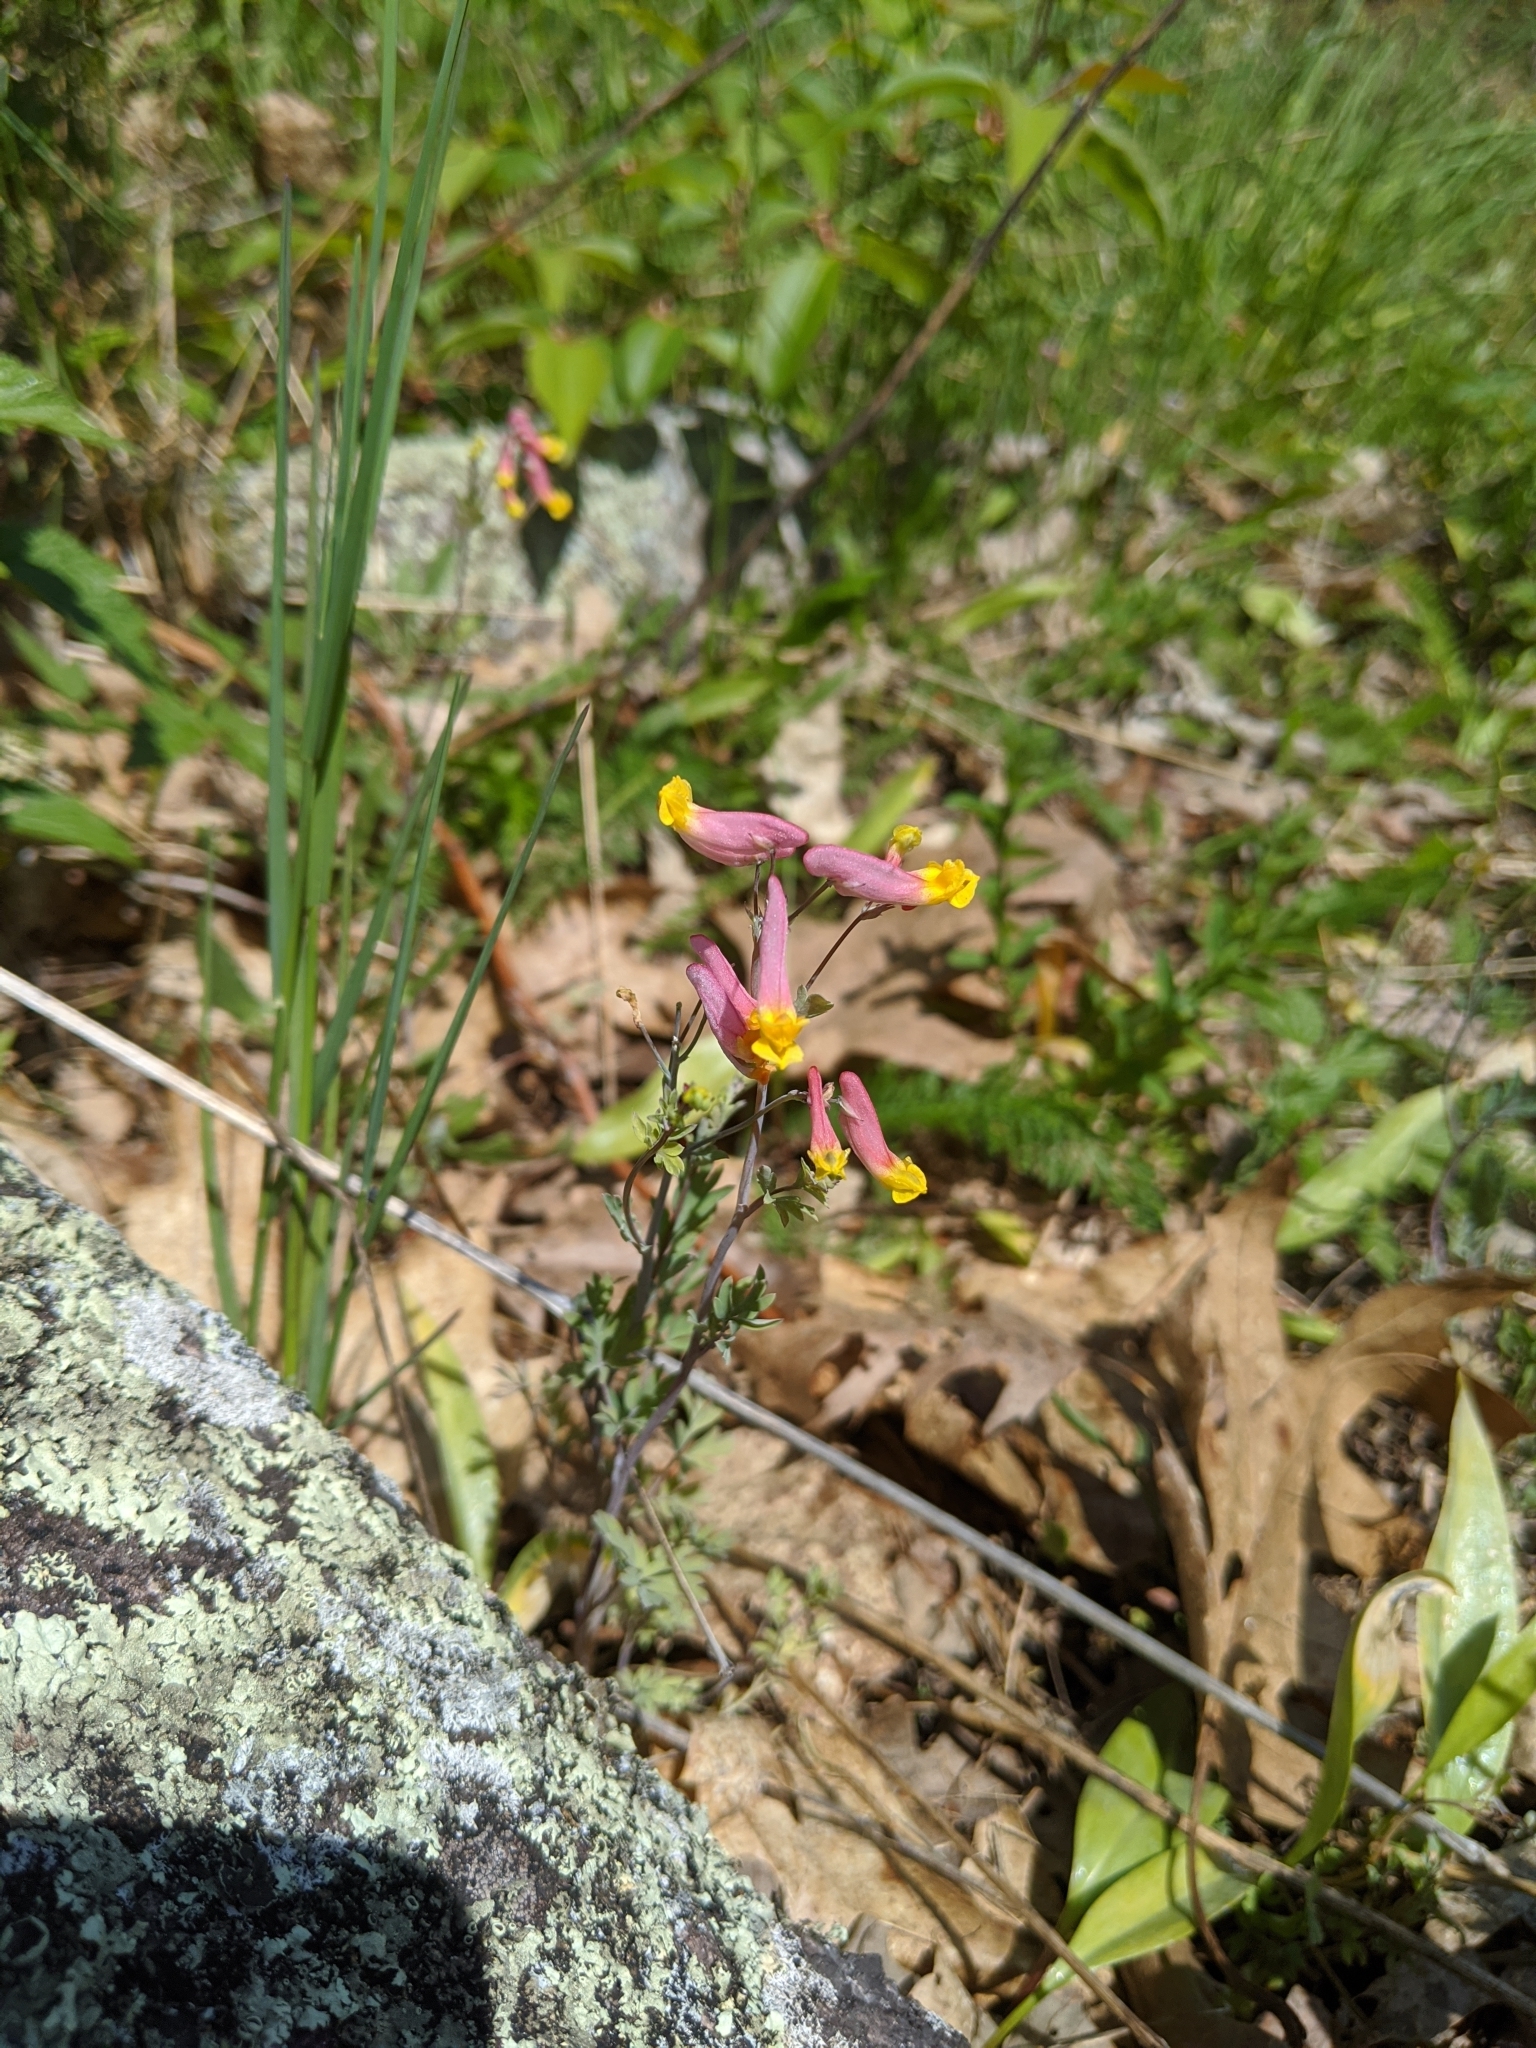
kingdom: Plantae
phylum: Tracheophyta
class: Magnoliopsida
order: Ranunculales
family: Papaveraceae
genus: Capnoides
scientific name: Capnoides sempervirens
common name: Rock harlequin
